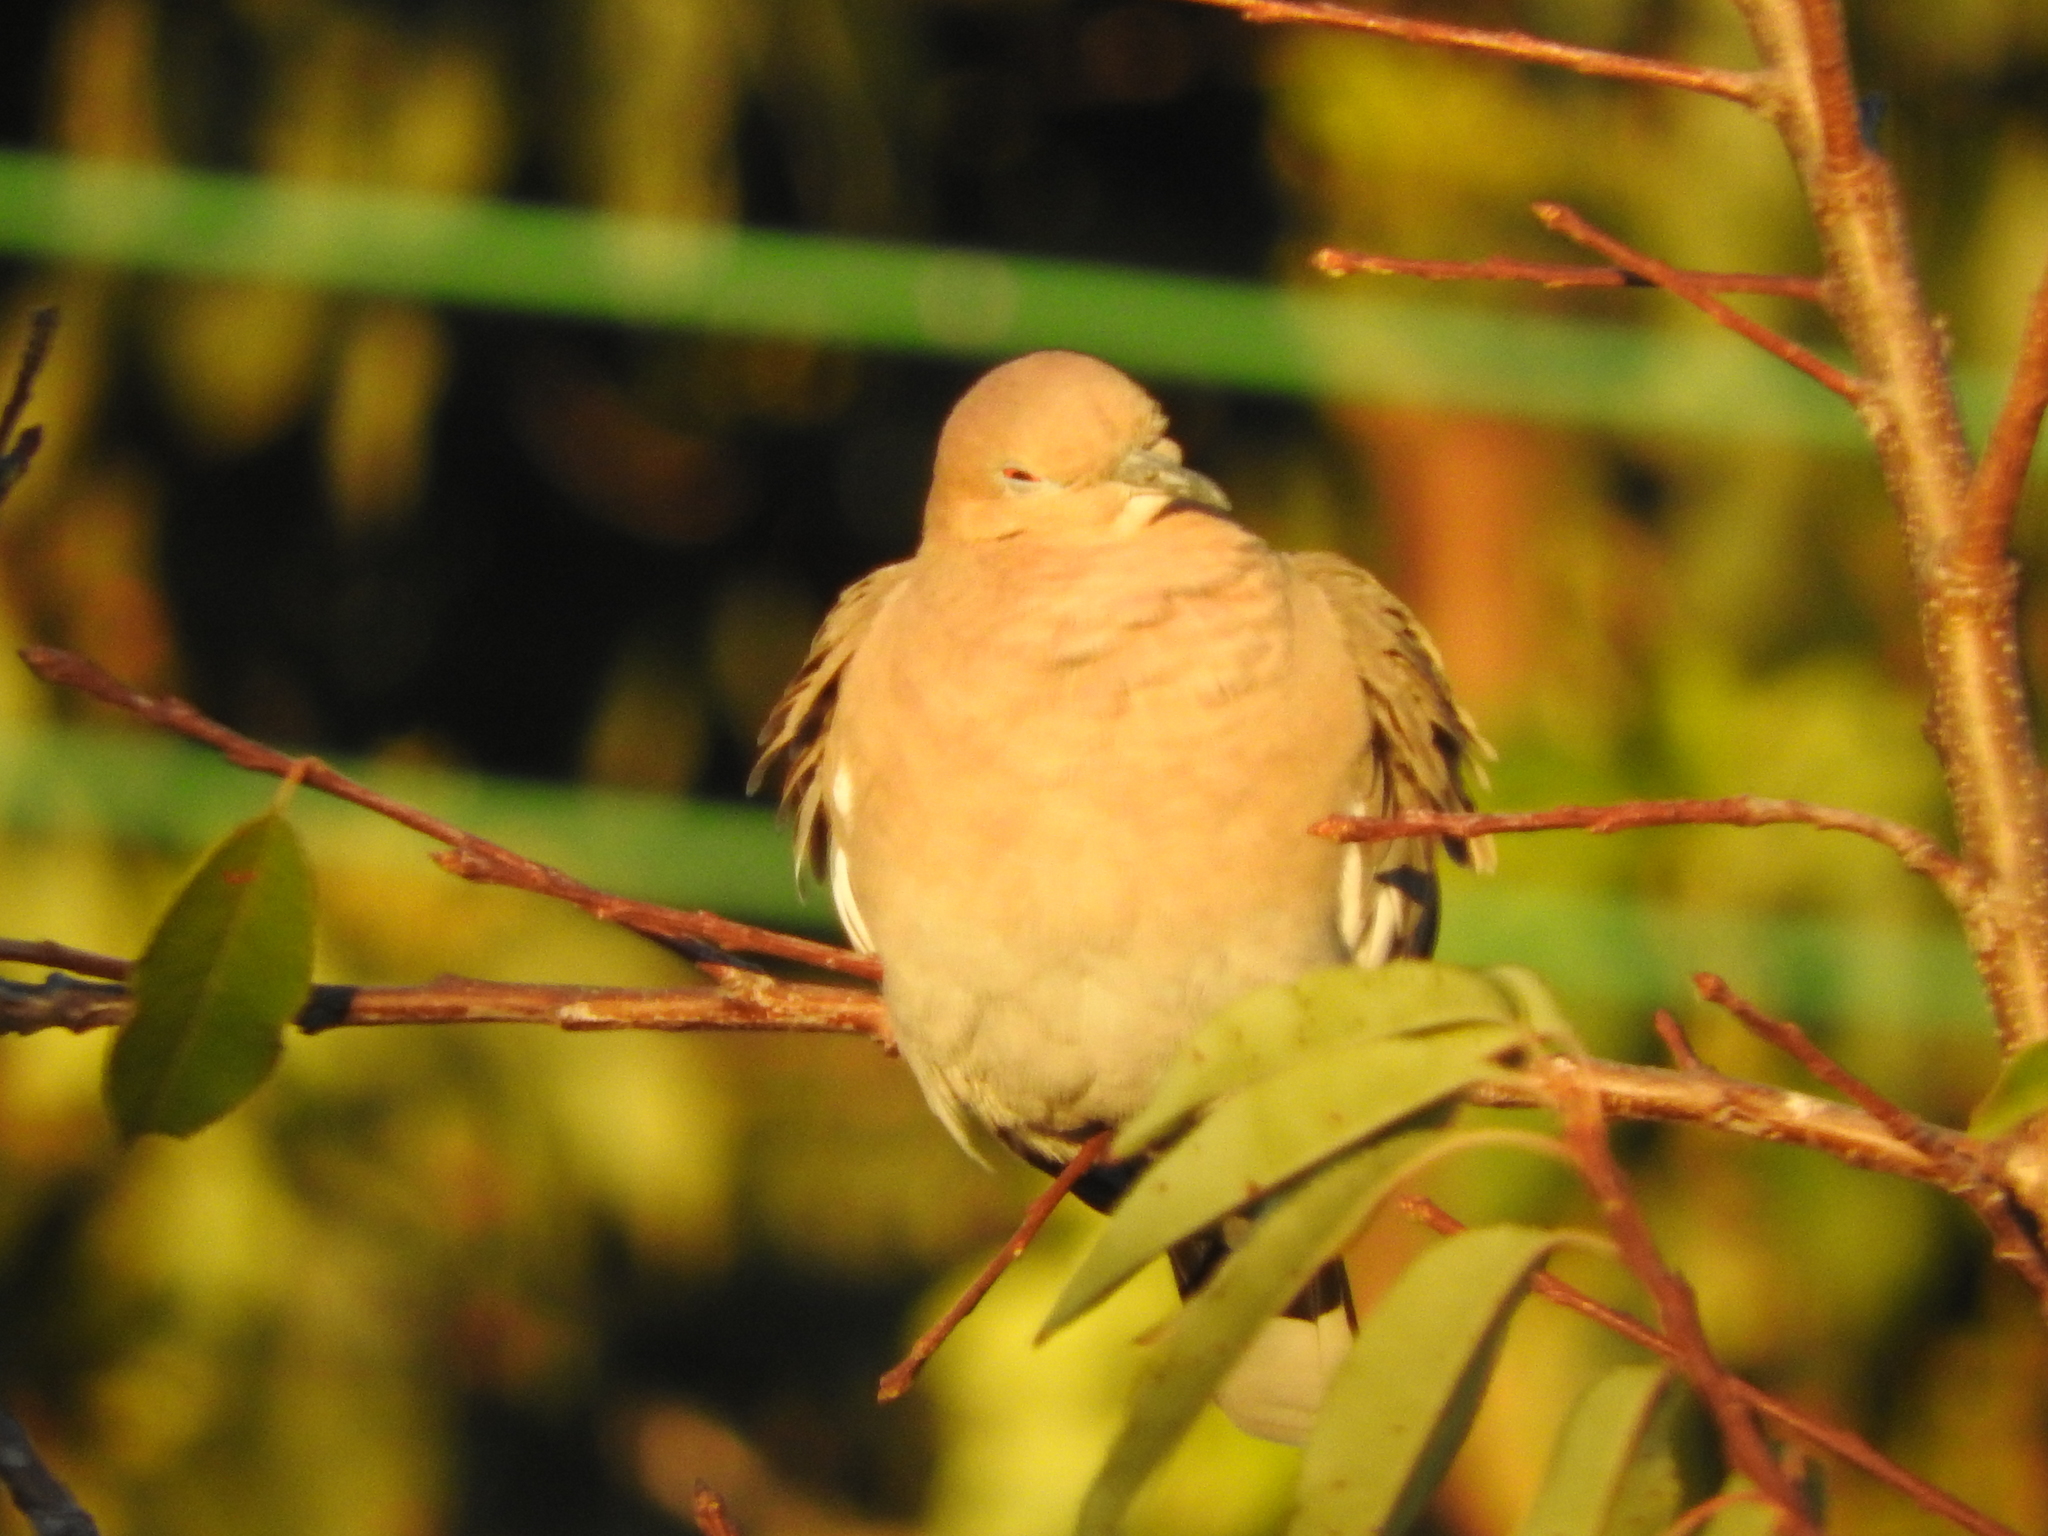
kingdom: Animalia
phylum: Chordata
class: Aves
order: Columbiformes
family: Columbidae
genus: Zenaida
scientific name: Zenaida asiatica
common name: White-winged dove
